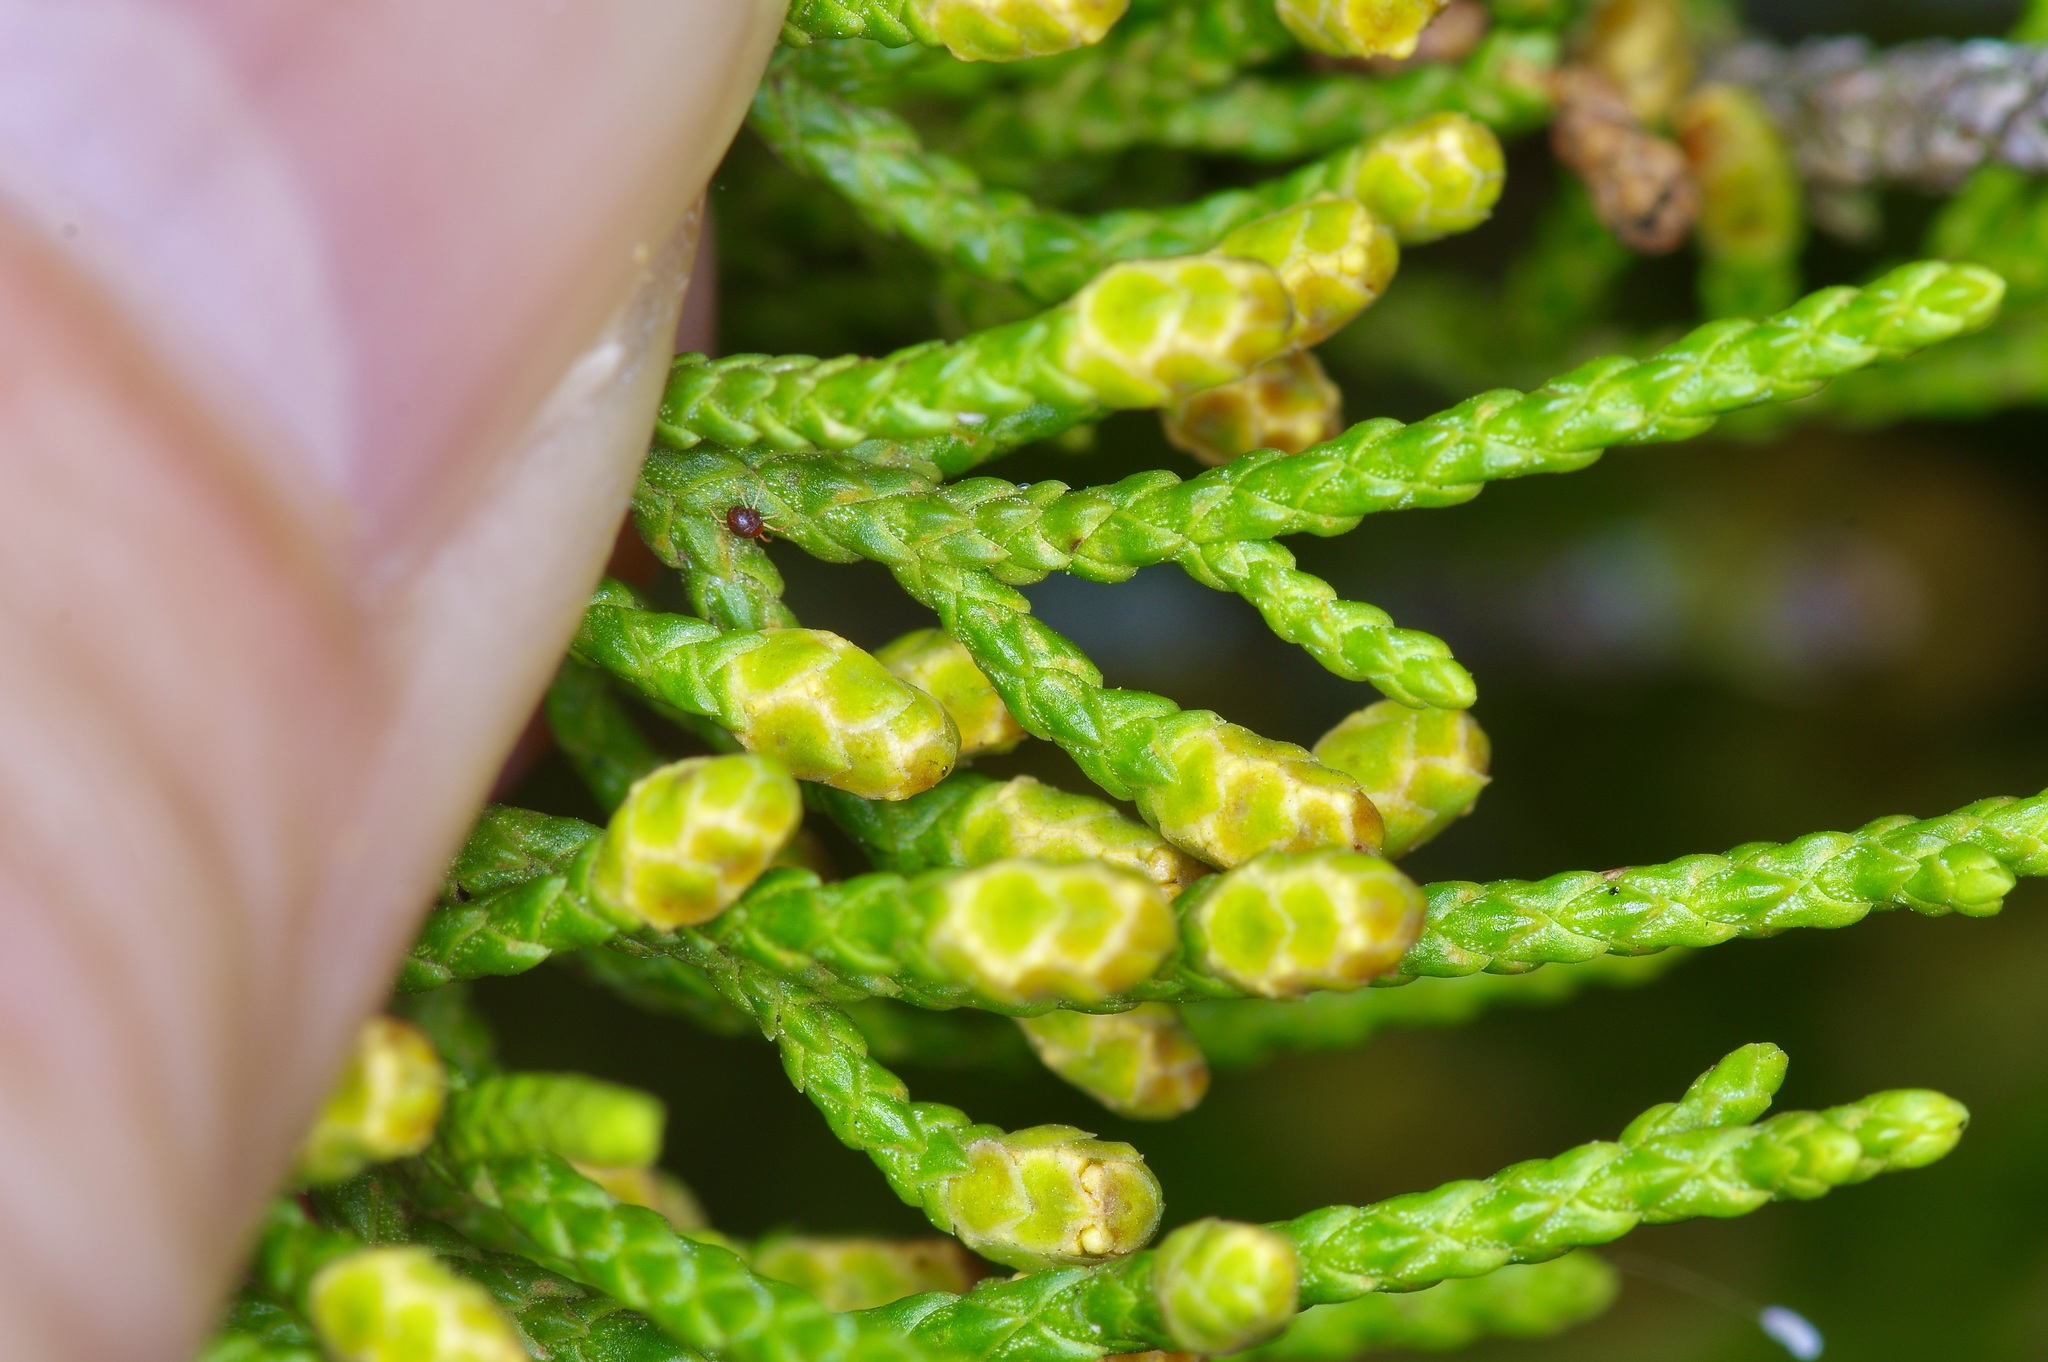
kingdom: Plantae
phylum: Tracheophyta
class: Pinopsida
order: Pinales
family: Cupressaceae
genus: Juniperus
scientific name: Juniperus ashei
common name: Mexican juniper
